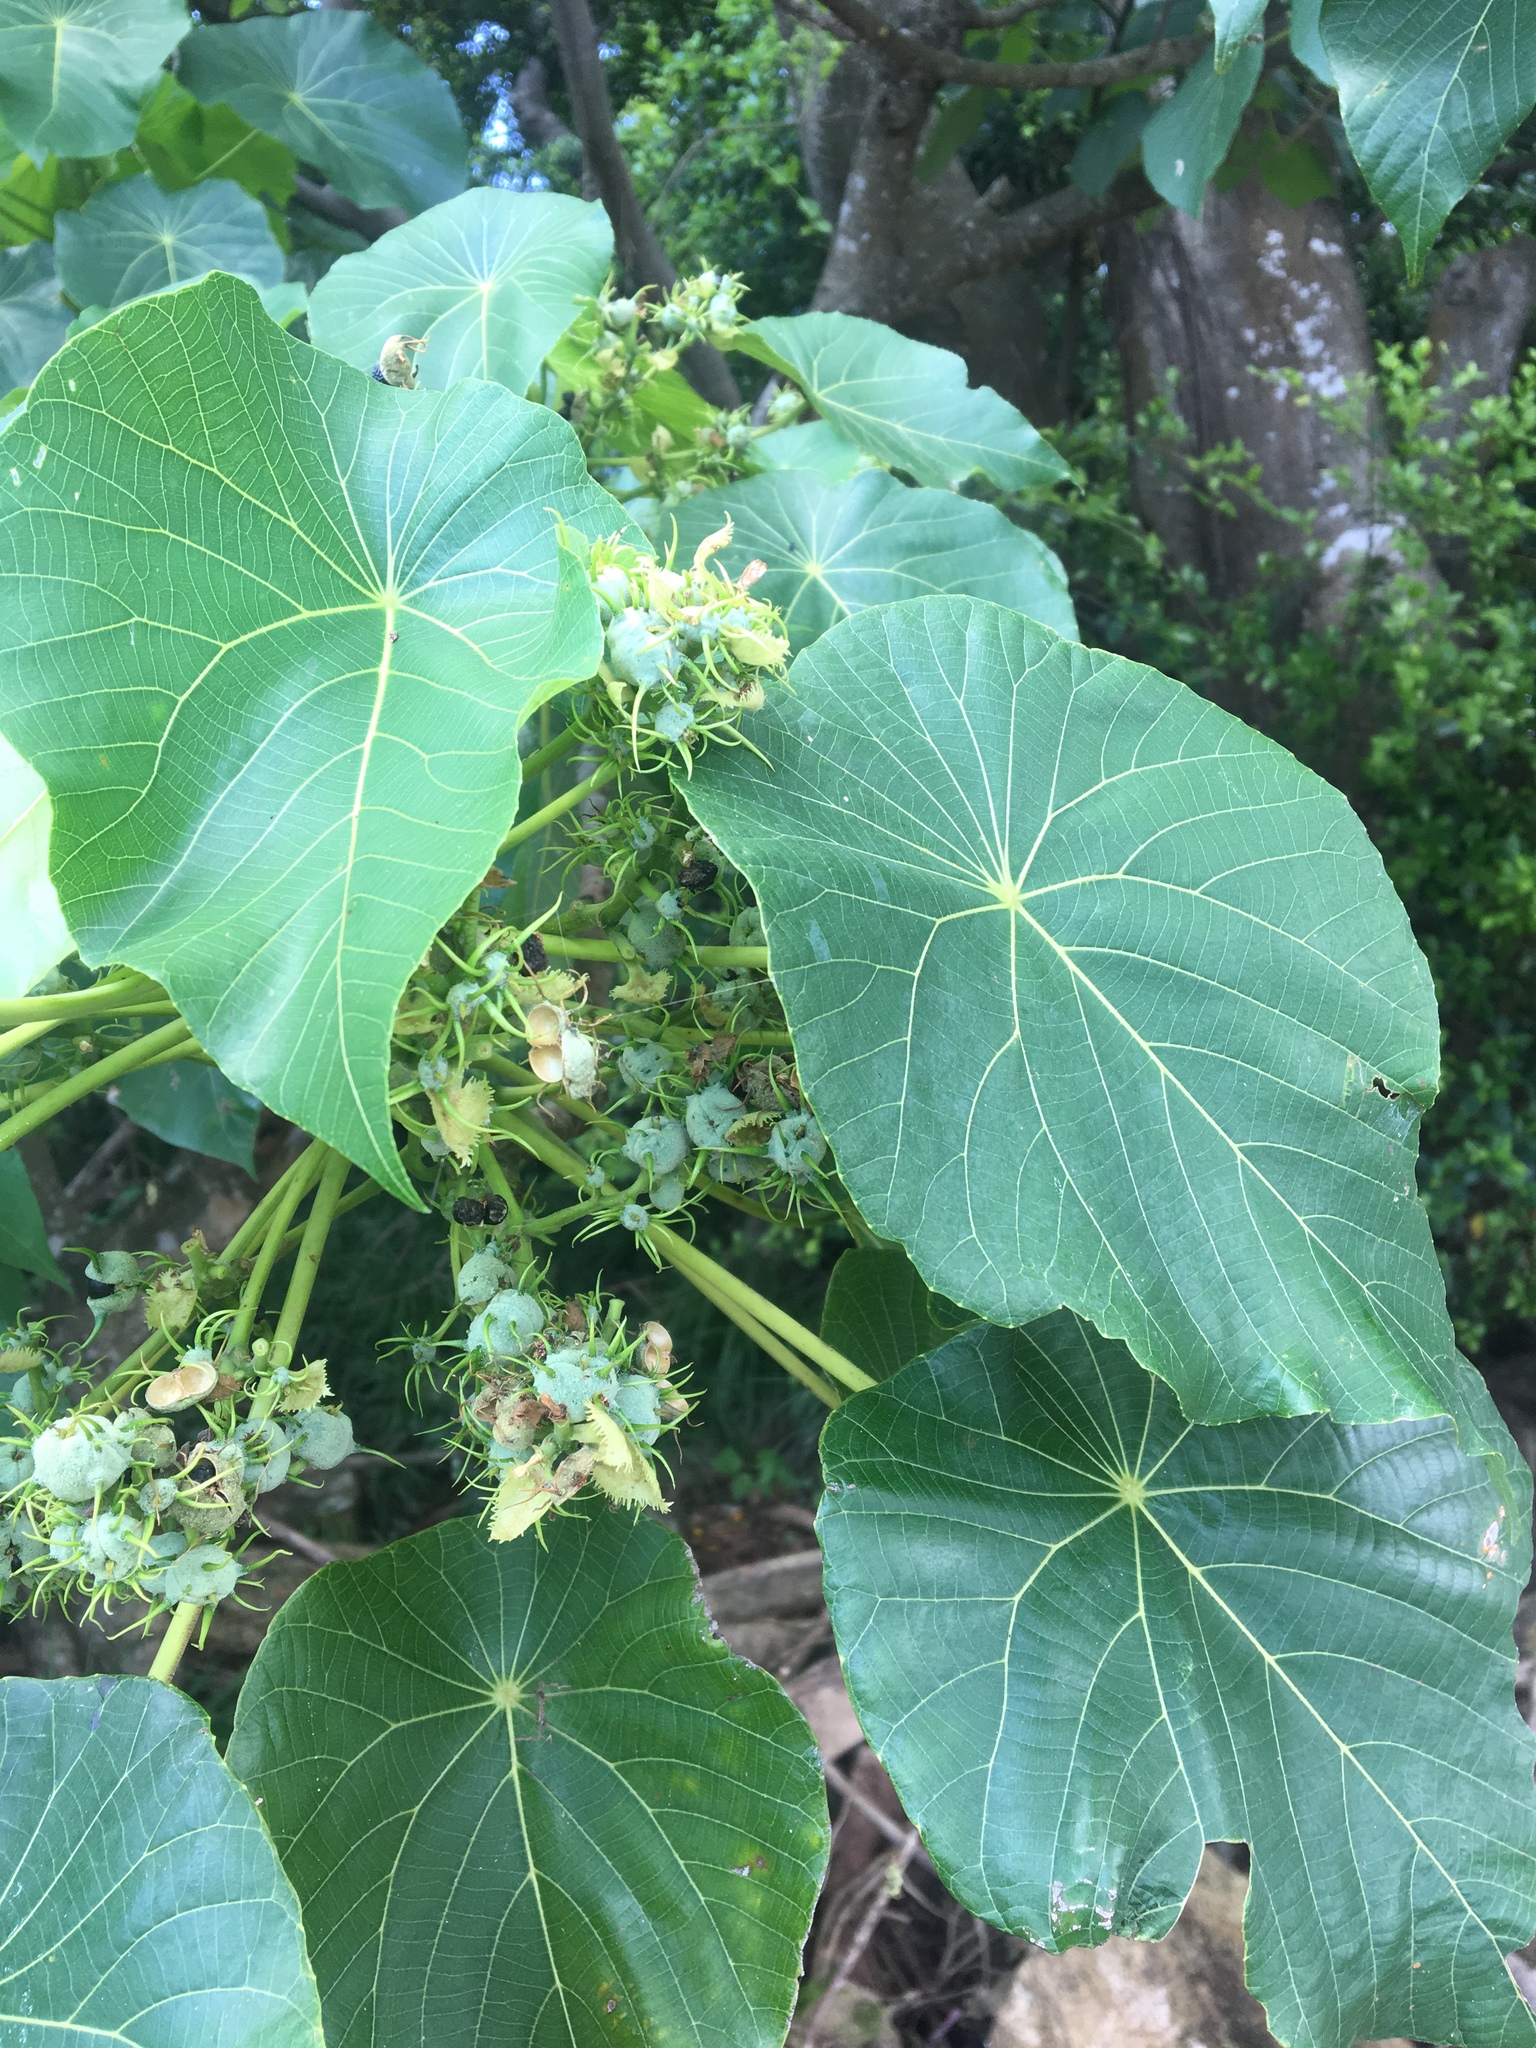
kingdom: Plantae
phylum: Tracheophyta
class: Magnoliopsida
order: Malpighiales
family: Euphorbiaceae
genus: Macaranga
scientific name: Macaranga tanarius
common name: Parasol leaf tree
